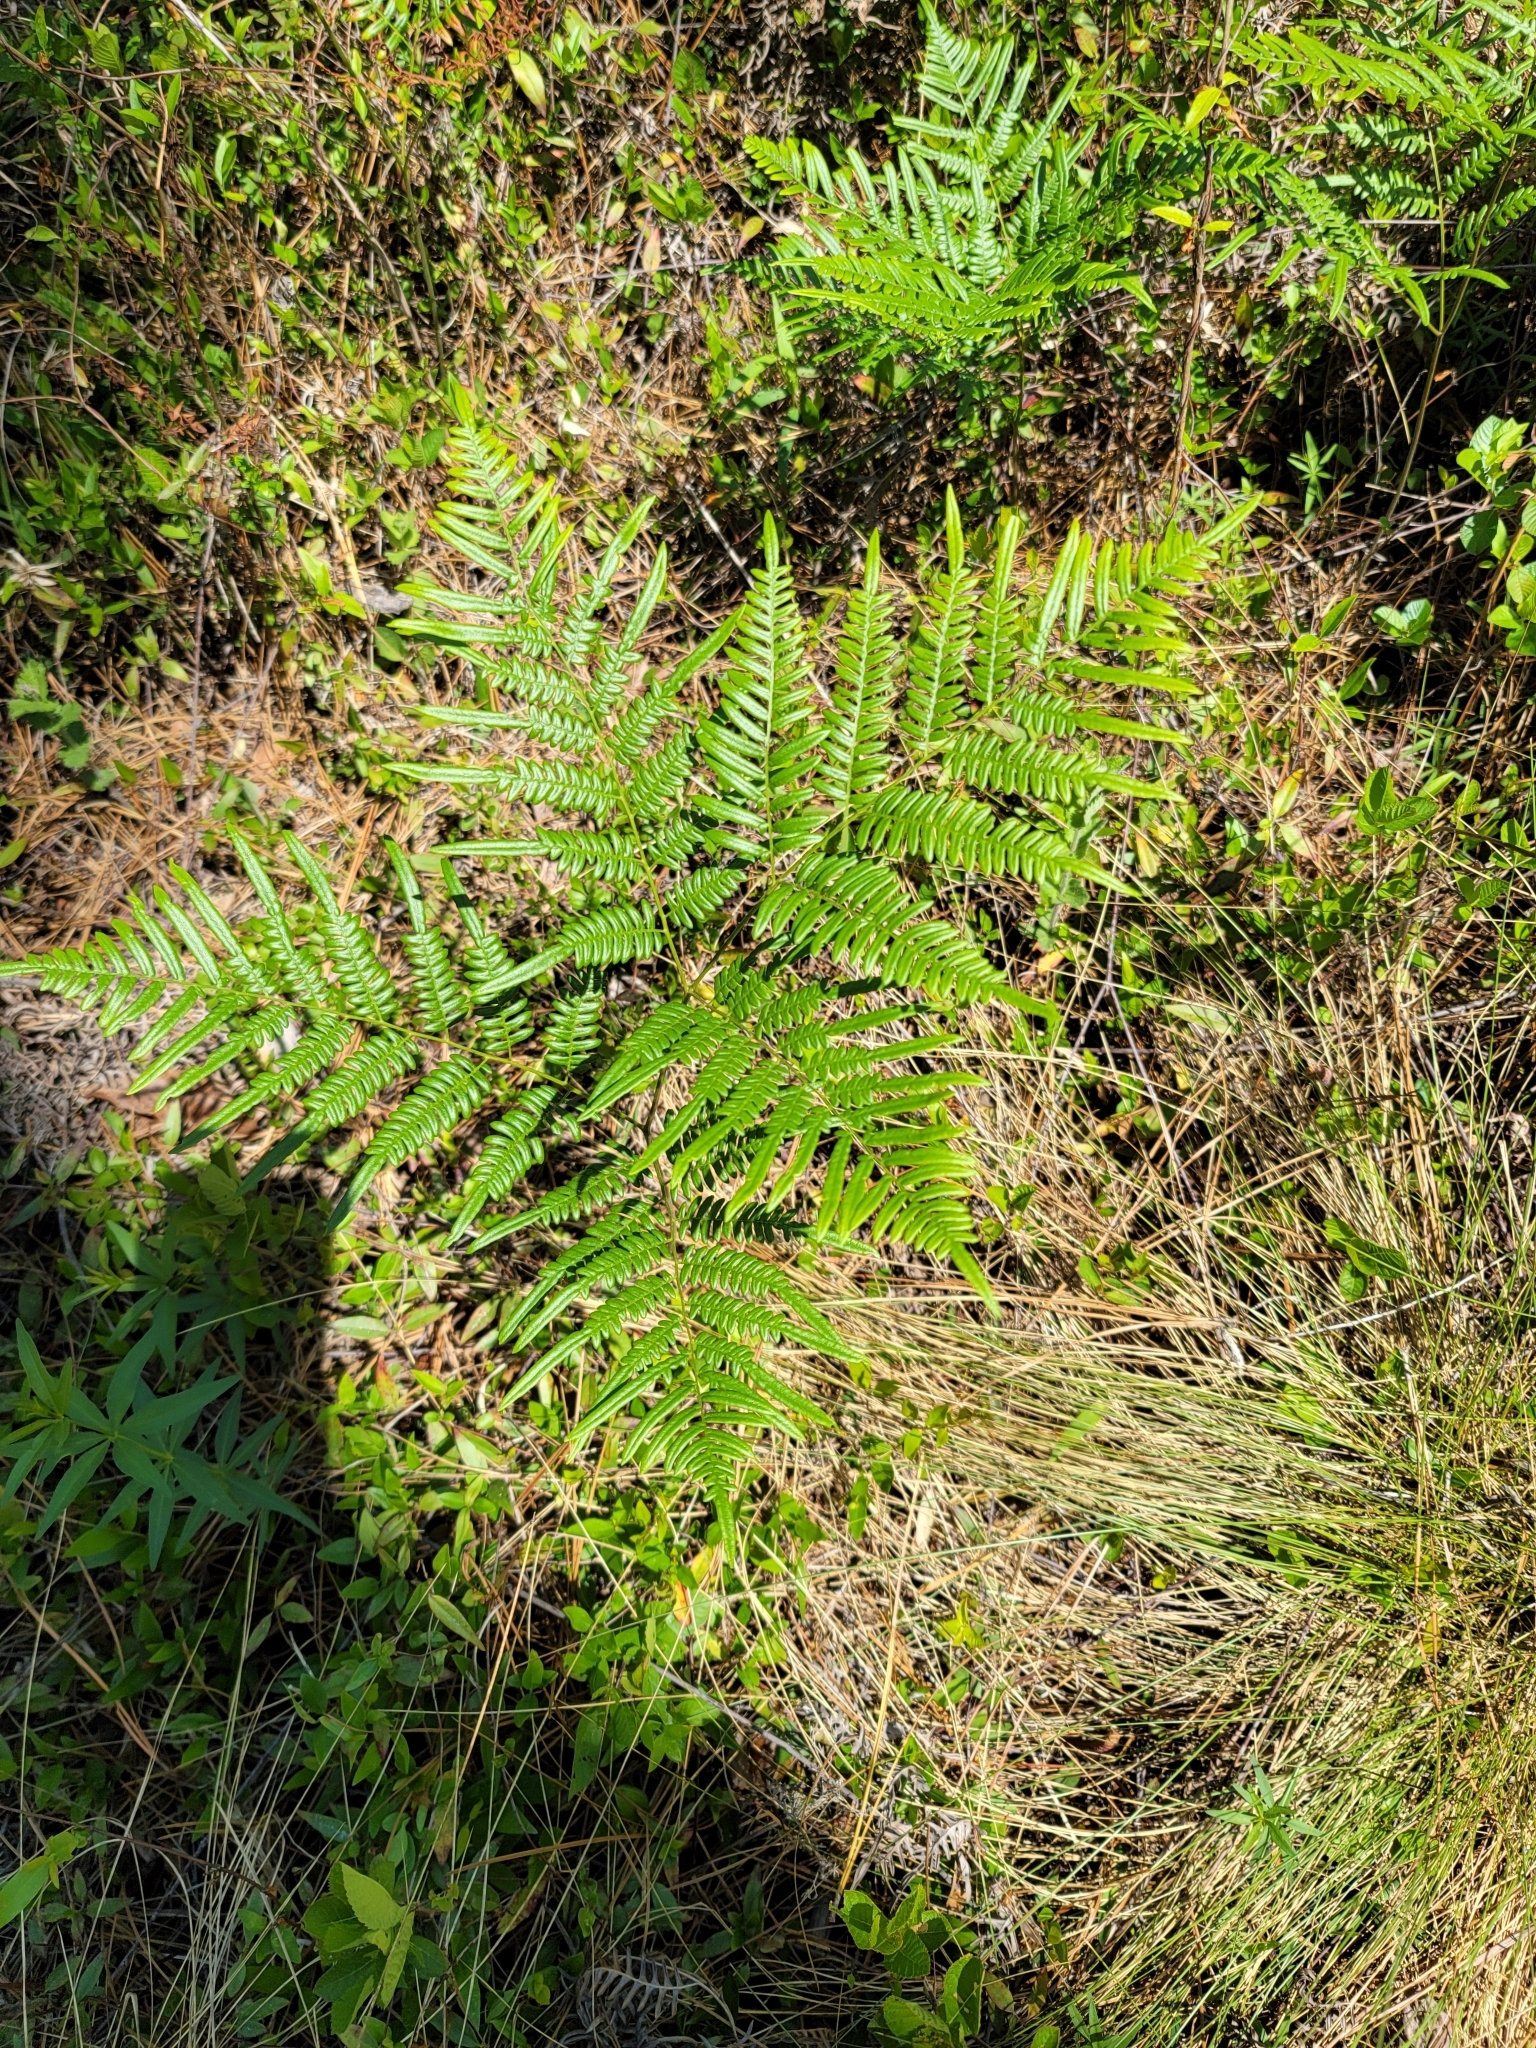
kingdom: Plantae
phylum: Tracheophyta
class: Polypodiopsida
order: Polypodiales
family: Dennstaedtiaceae
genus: Pteridium
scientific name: Pteridium aquilinum
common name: Bracken
